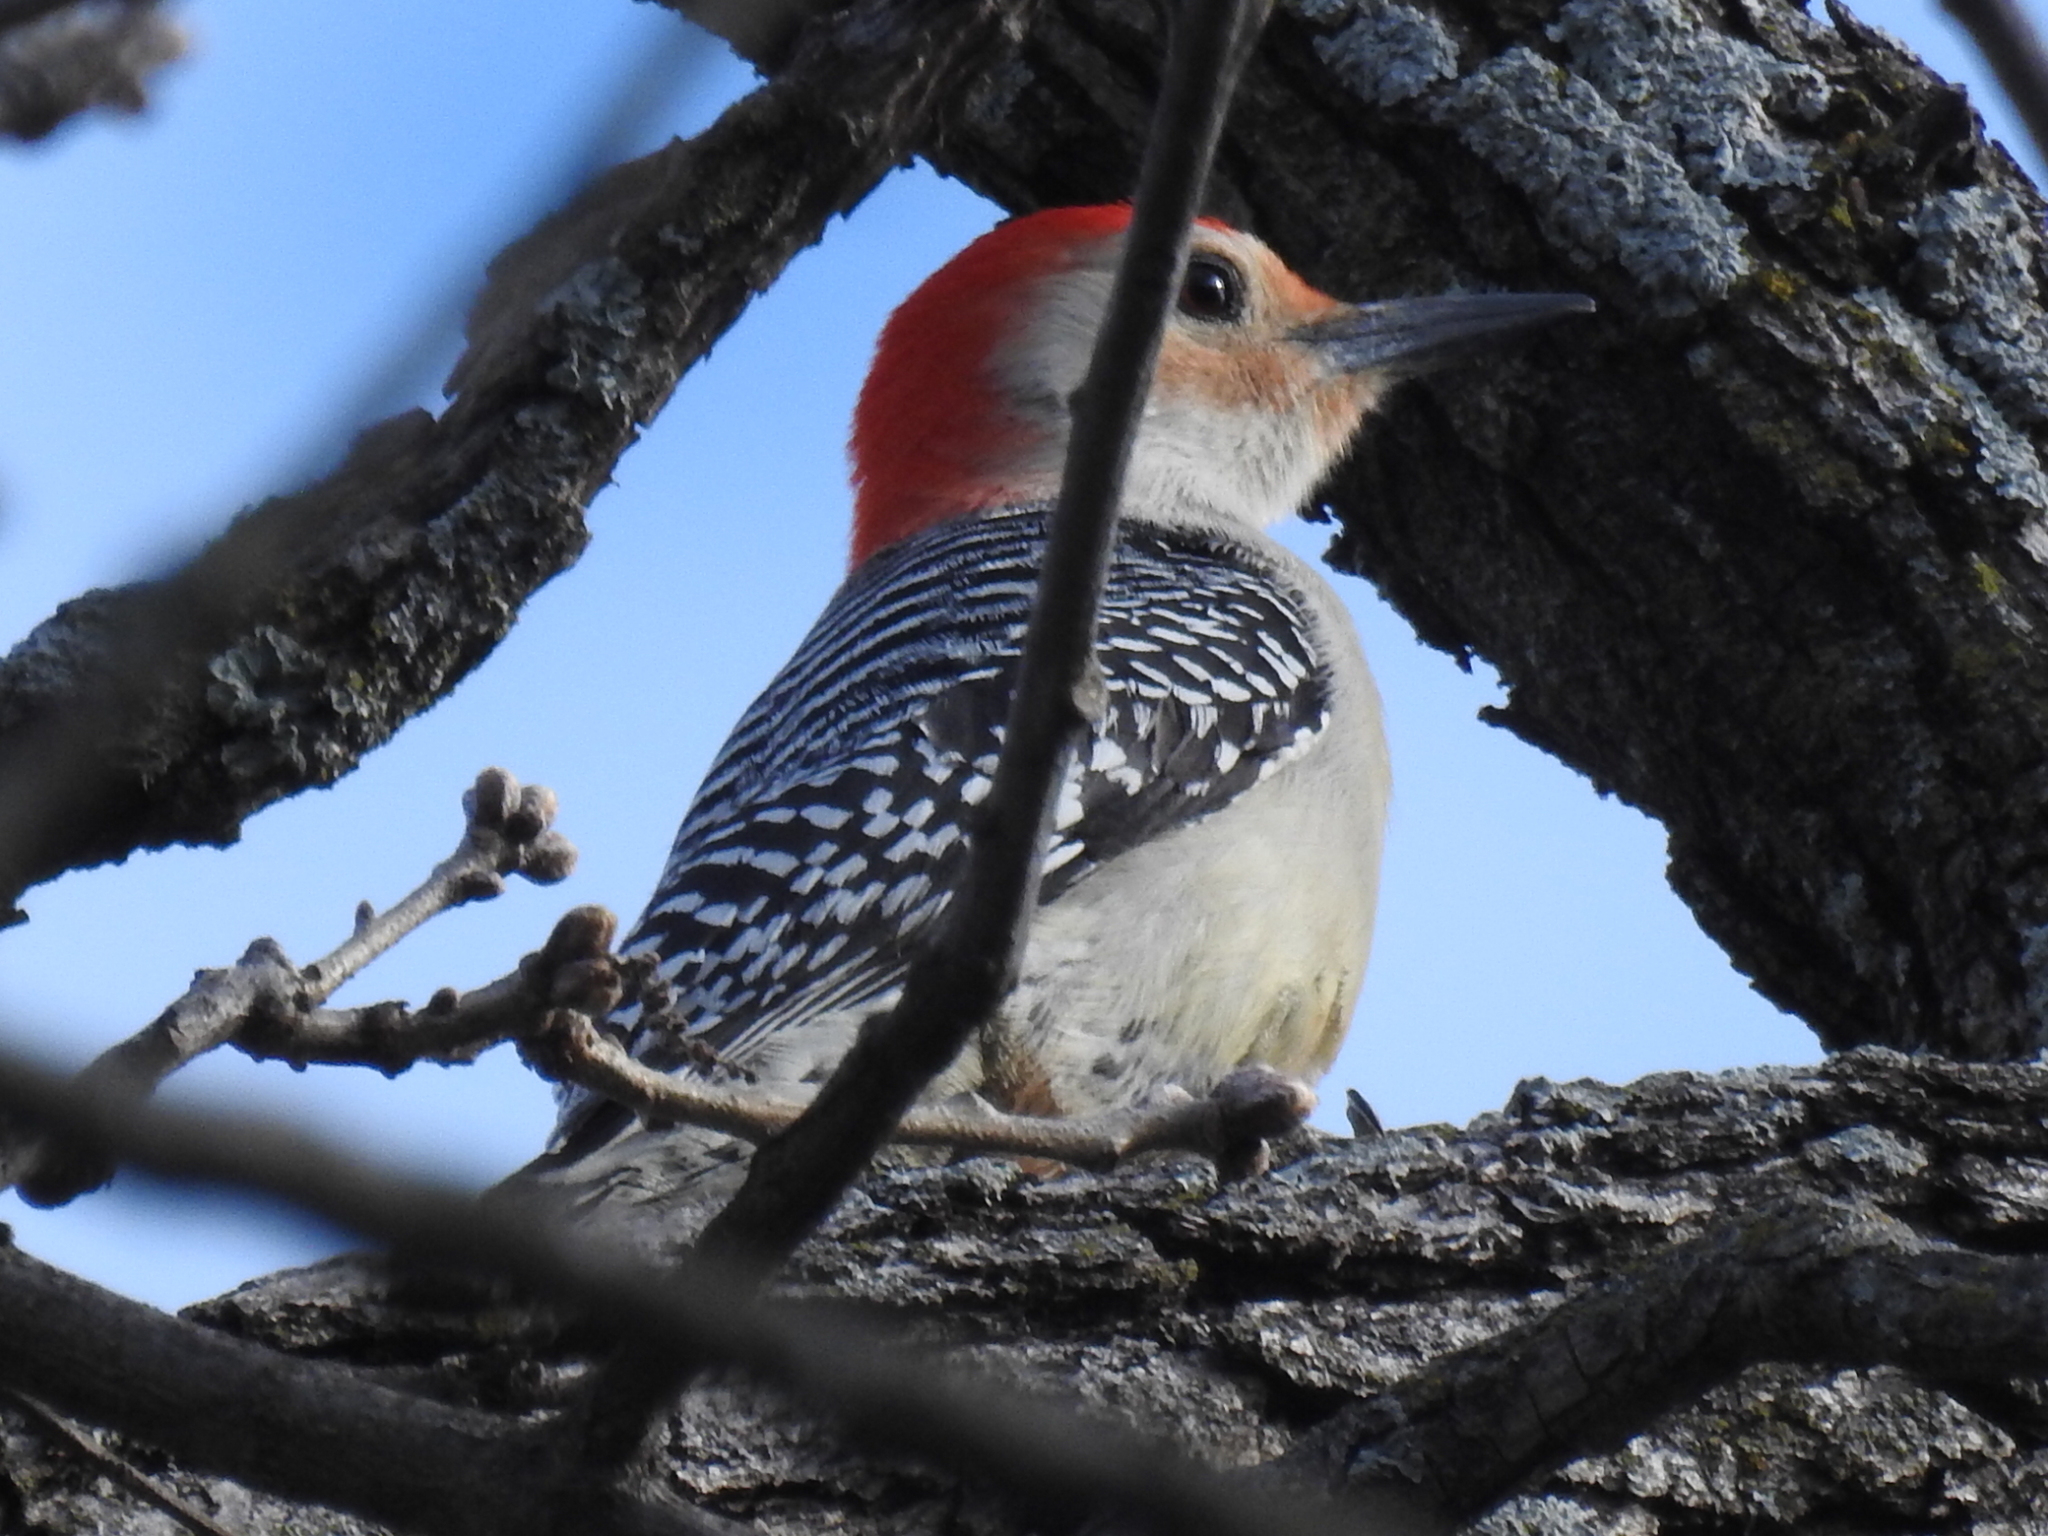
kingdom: Animalia
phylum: Chordata
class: Aves
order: Piciformes
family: Picidae
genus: Melanerpes
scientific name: Melanerpes carolinus
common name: Red-bellied woodpecker
